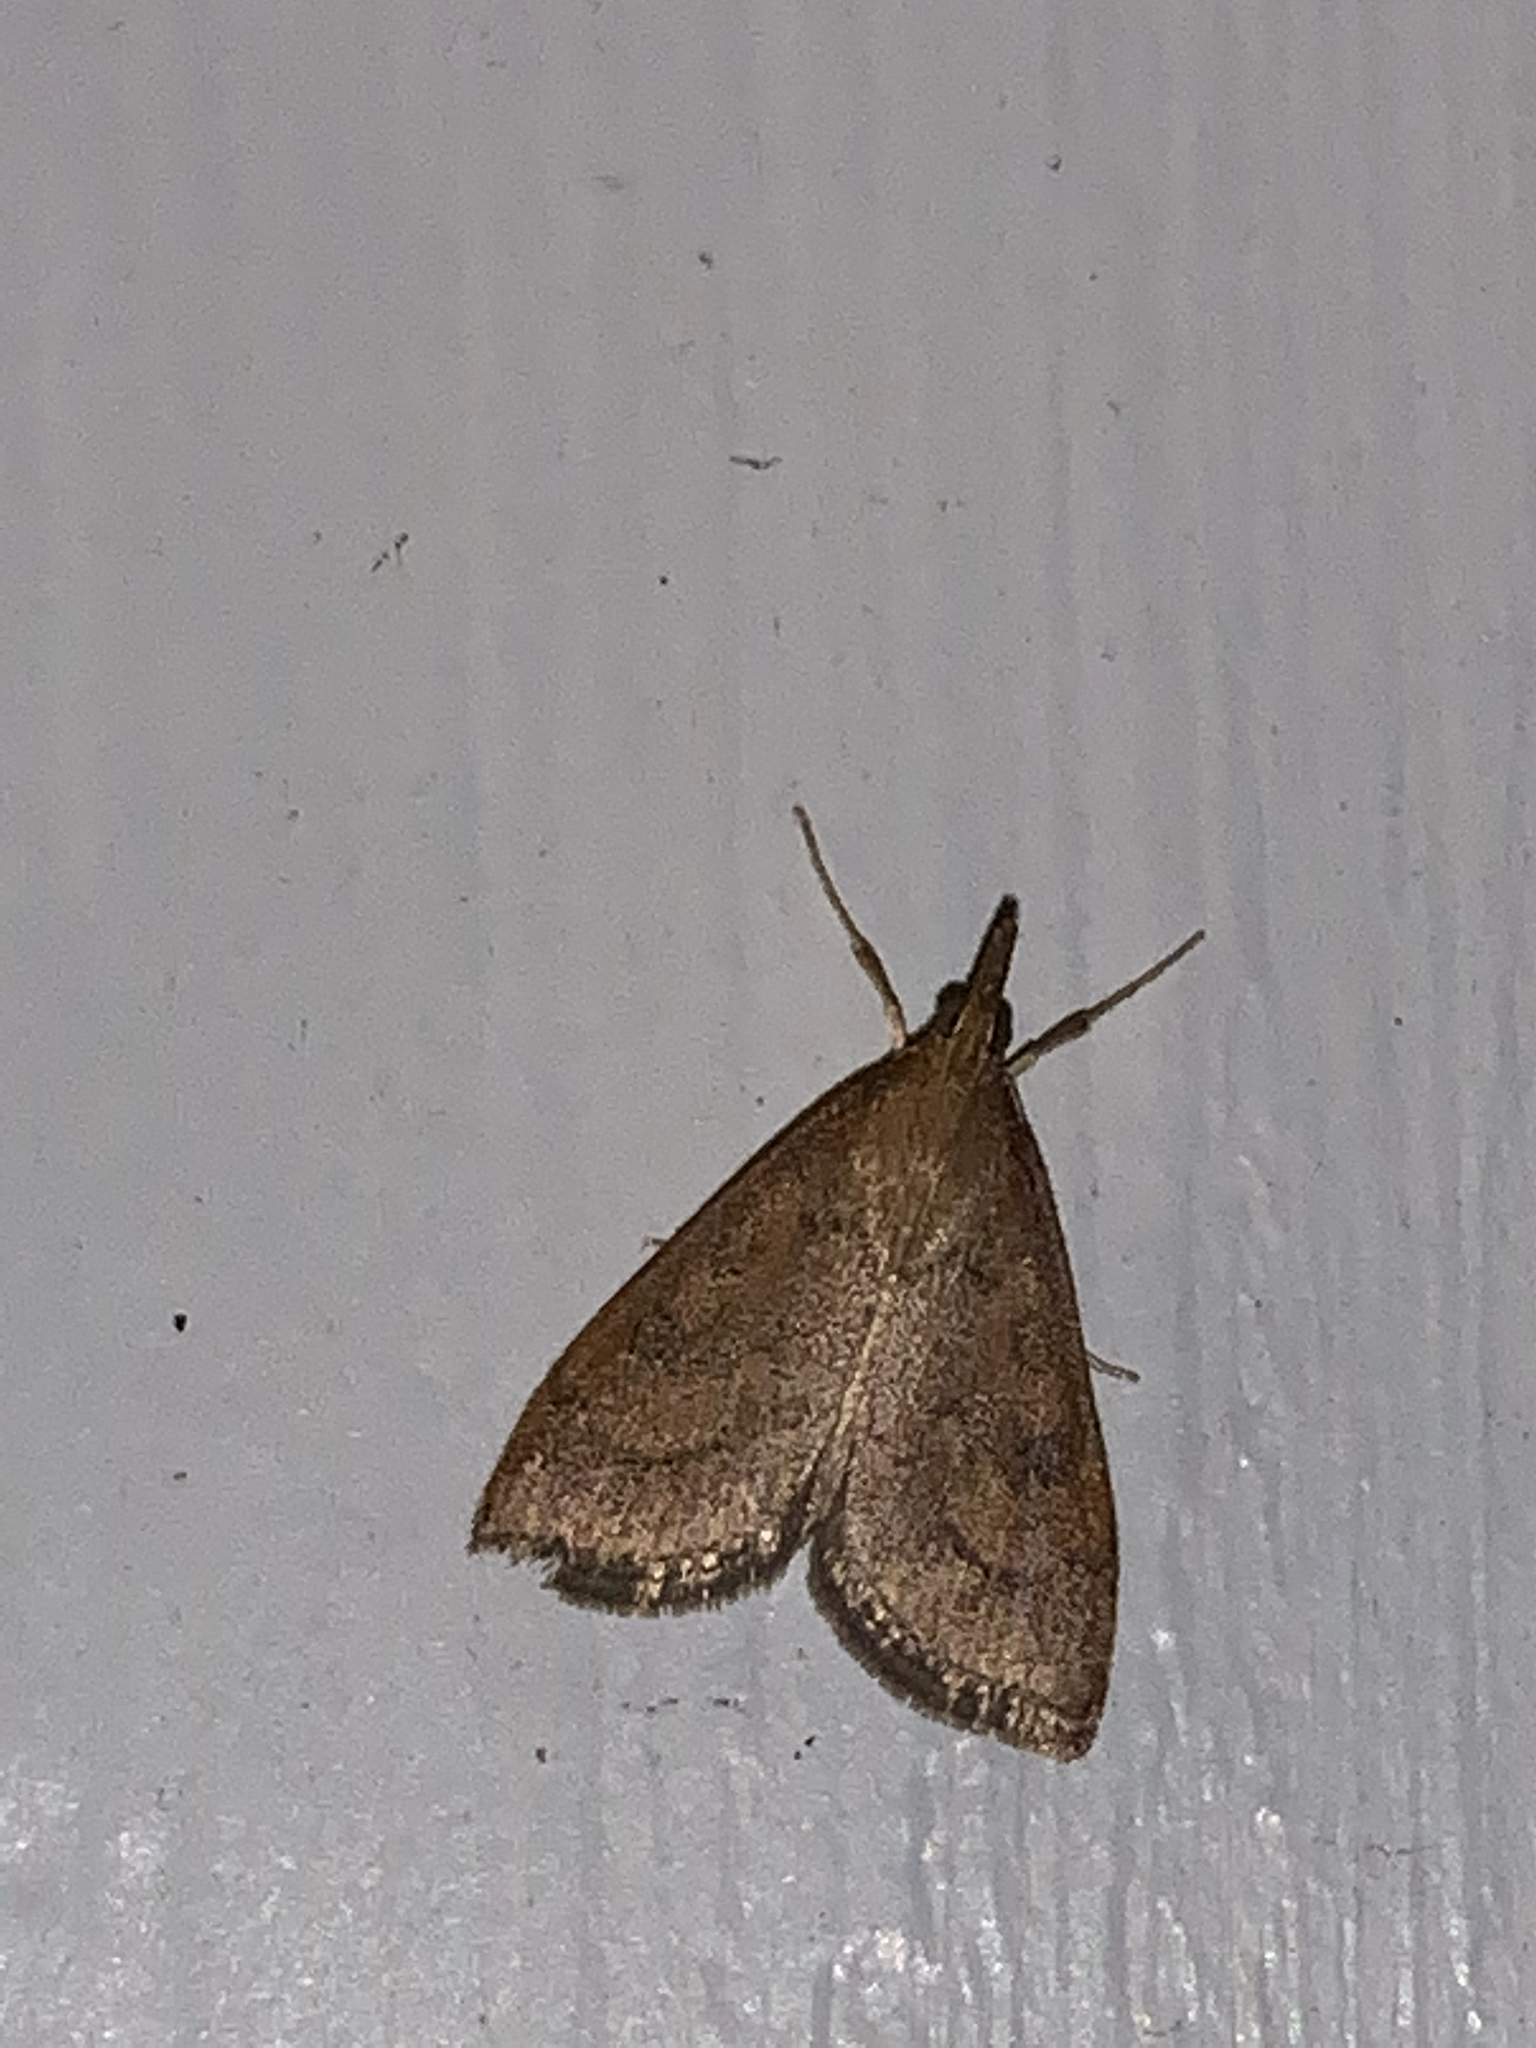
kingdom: Animalia
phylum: Arthropoda
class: Insecta
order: Lepidoptera
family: Crambidae
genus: Udea
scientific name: Udea rubigalis
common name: Celery leaftier moth
